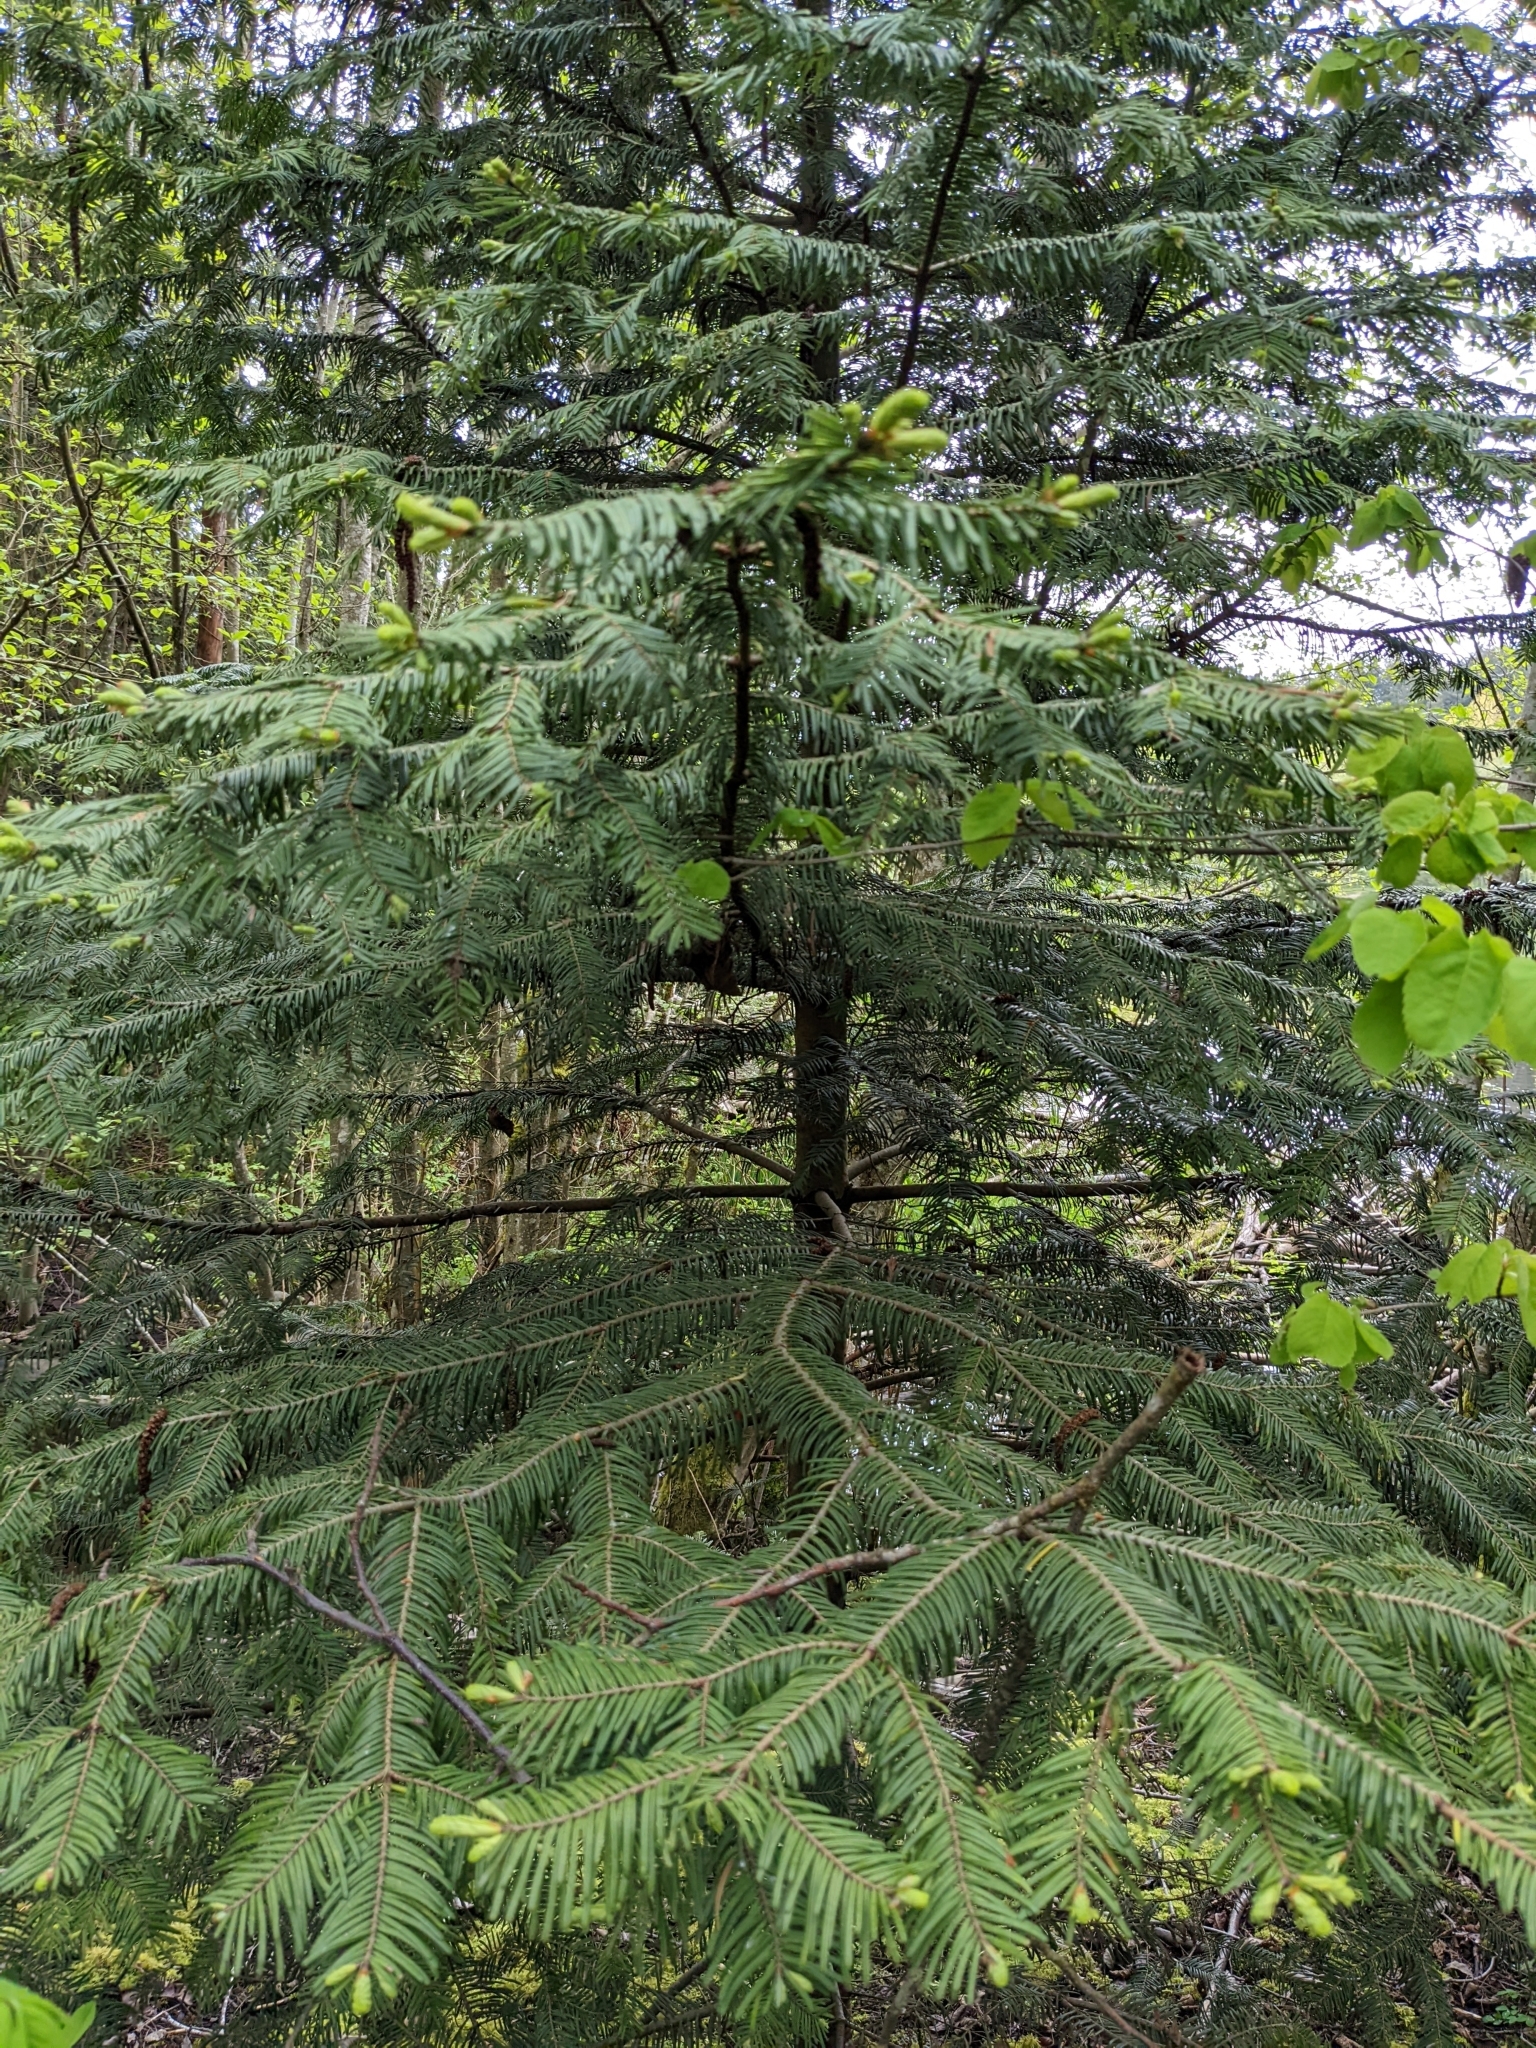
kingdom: Plantae
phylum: Tracheophyta
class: Pinopsida
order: Pinales
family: Pinaceae
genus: Abies
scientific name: Abies grandis
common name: Giant fir
